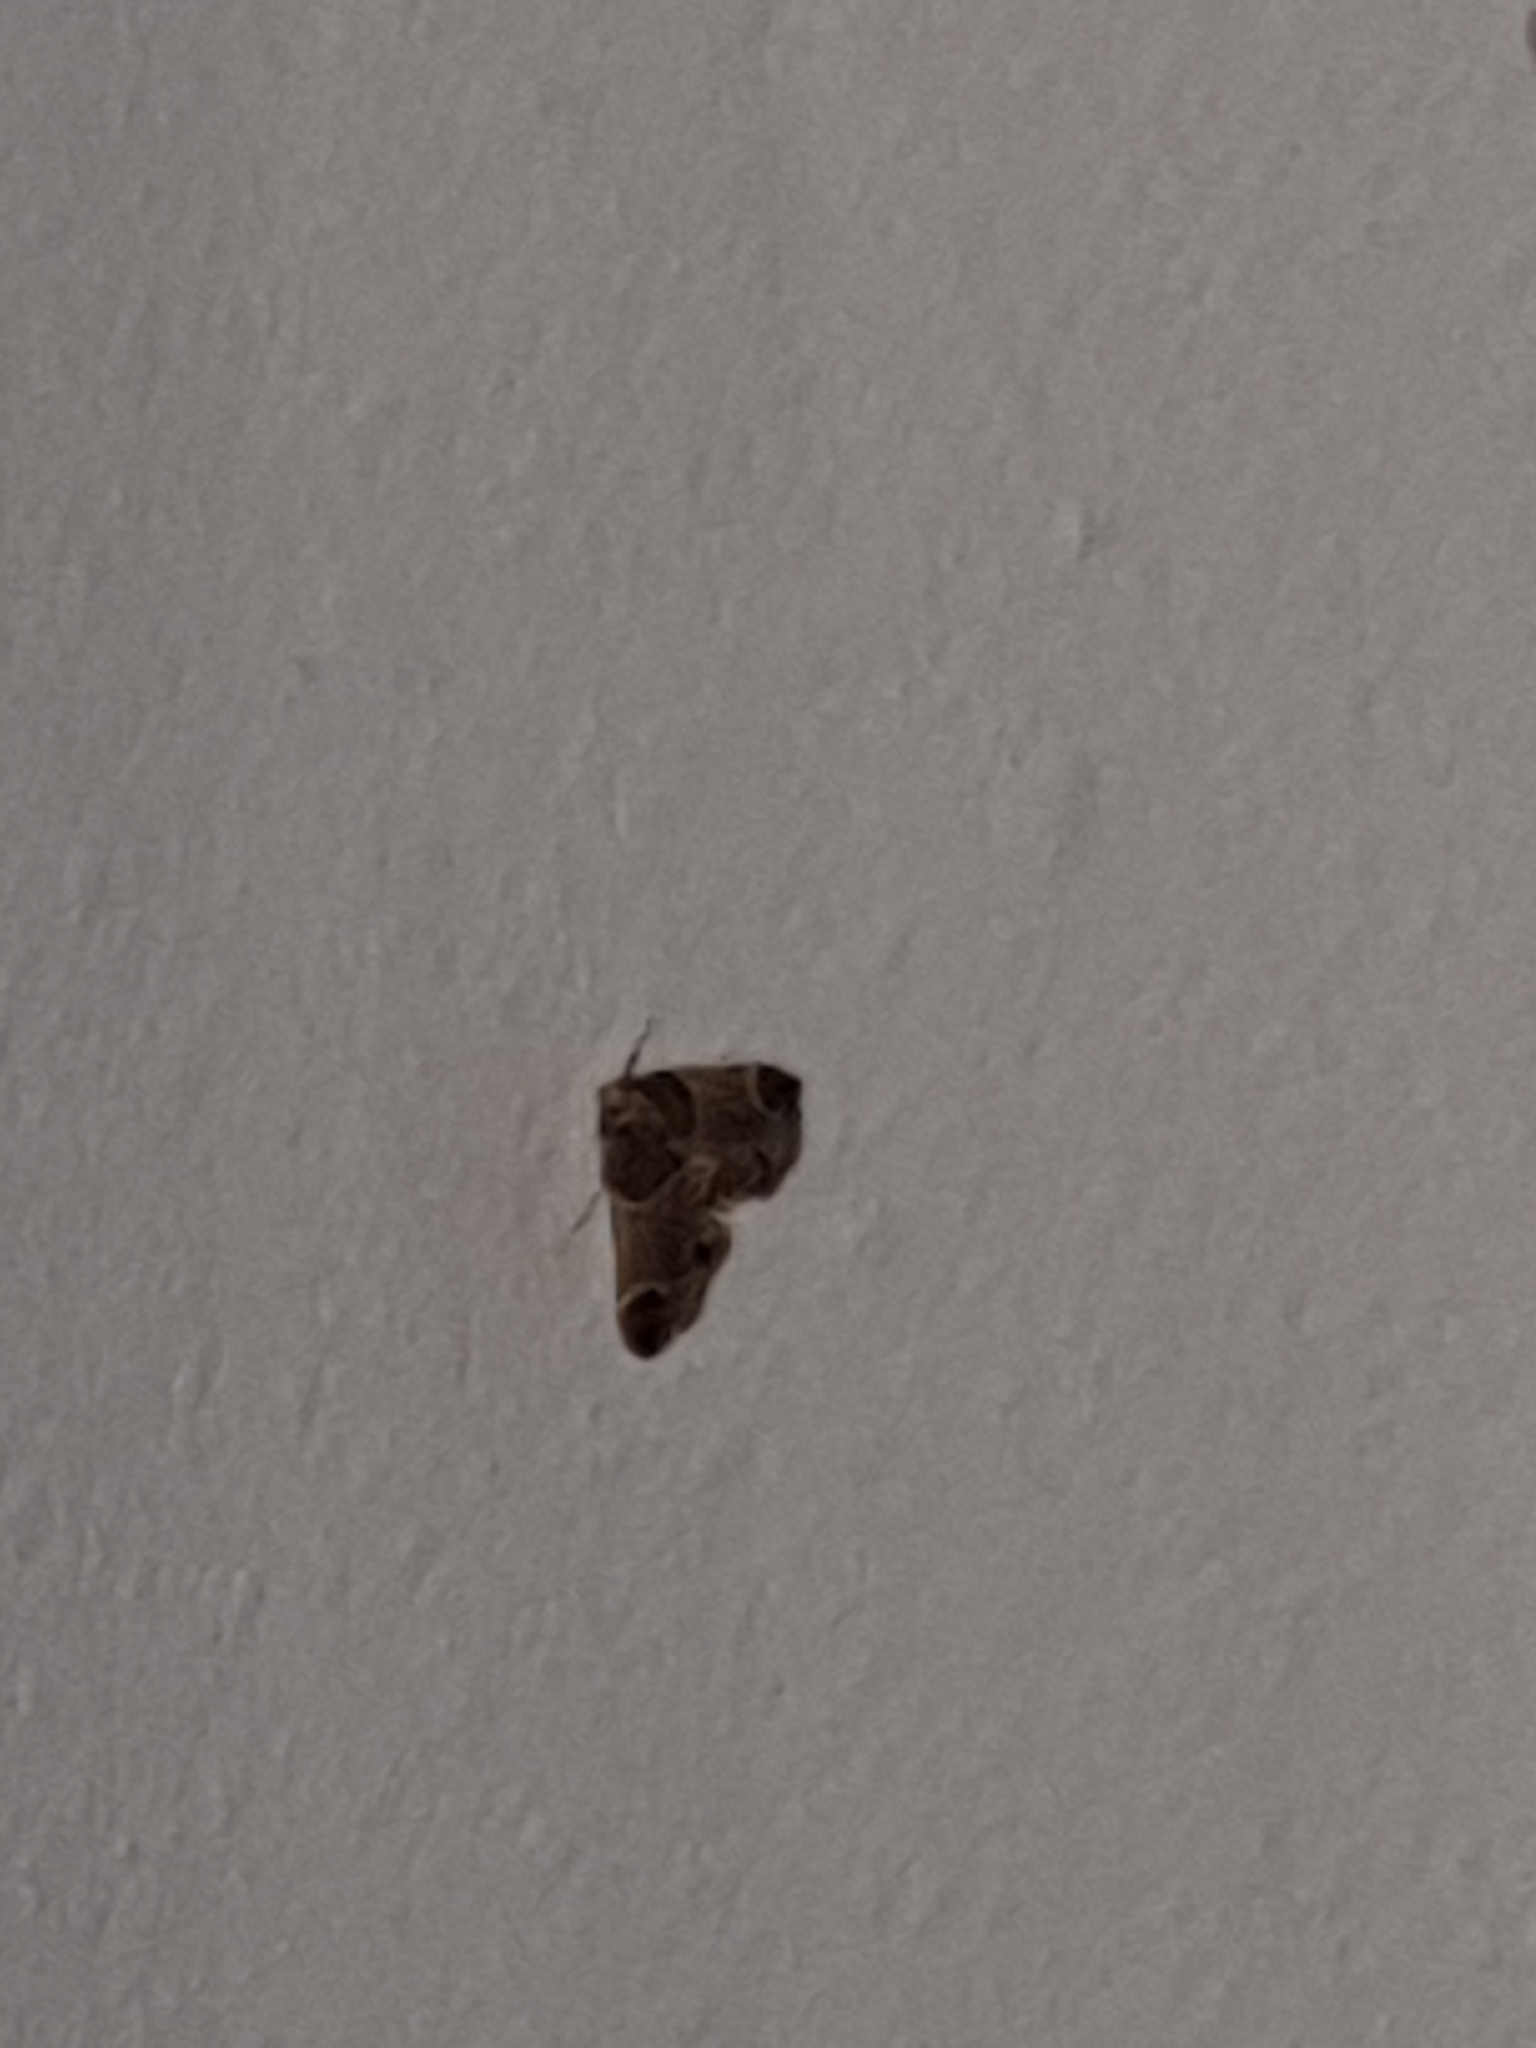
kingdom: Animalia
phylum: Arthropoda
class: Insecta
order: Lepidoptera
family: Pyralidae
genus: Pyralis
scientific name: Pyralis farinalis
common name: Meal moth
